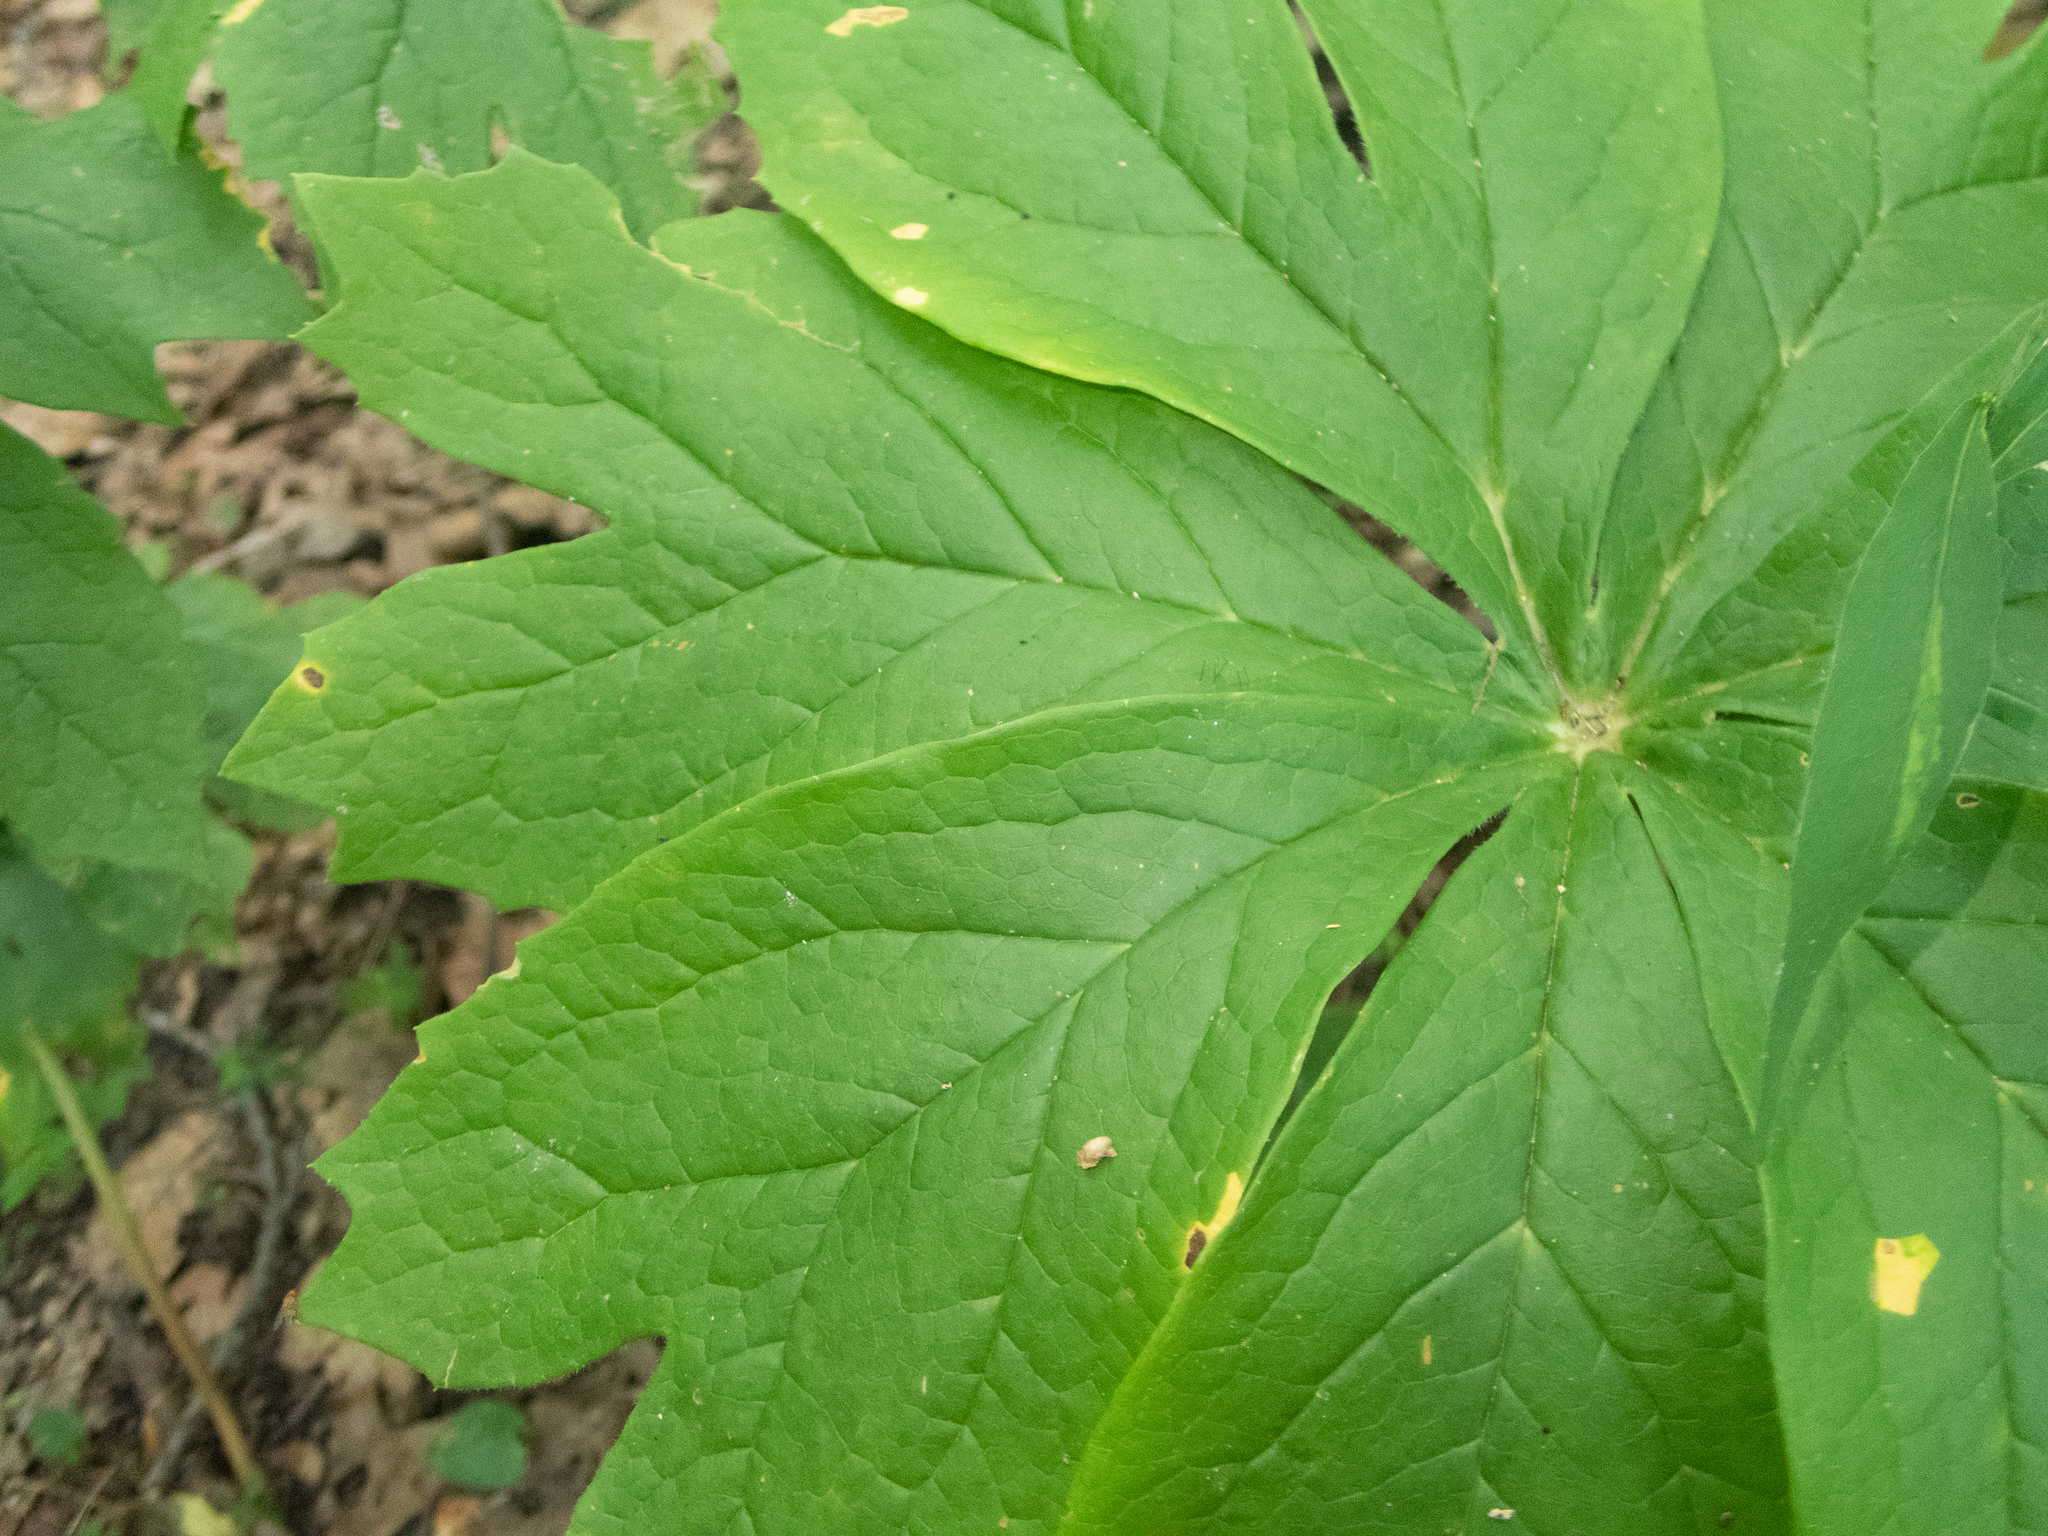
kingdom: Plantae
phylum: Tracheophyta
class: Magnoliopsida
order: Ranunculales
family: Berberidaceae
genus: Podophyllum
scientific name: Podophyllum peltatum
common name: Wild mandrake
